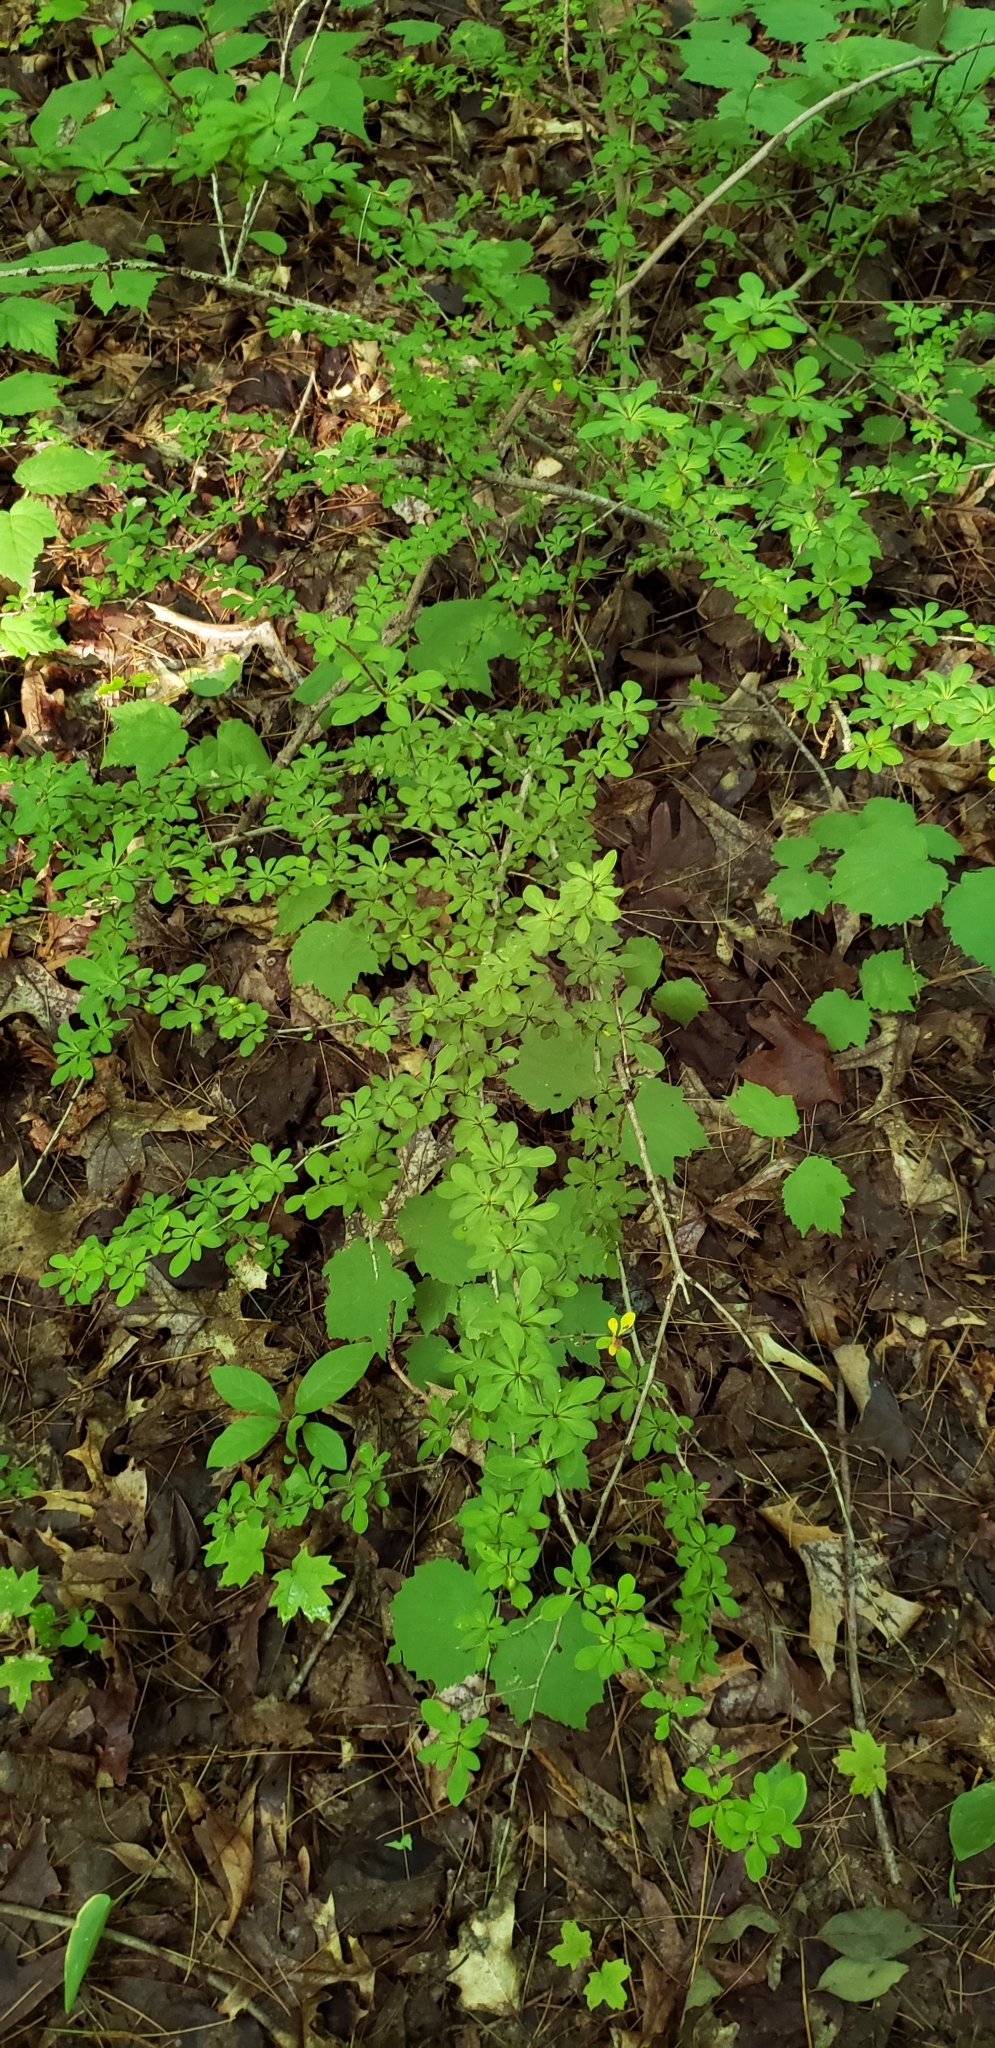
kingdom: Plantae
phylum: Tracheophyta
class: Magnoliopsida
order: Ranunculales
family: Berberidaceae
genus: Berberis
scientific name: Berberis thunbergii
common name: Japanese barberry
